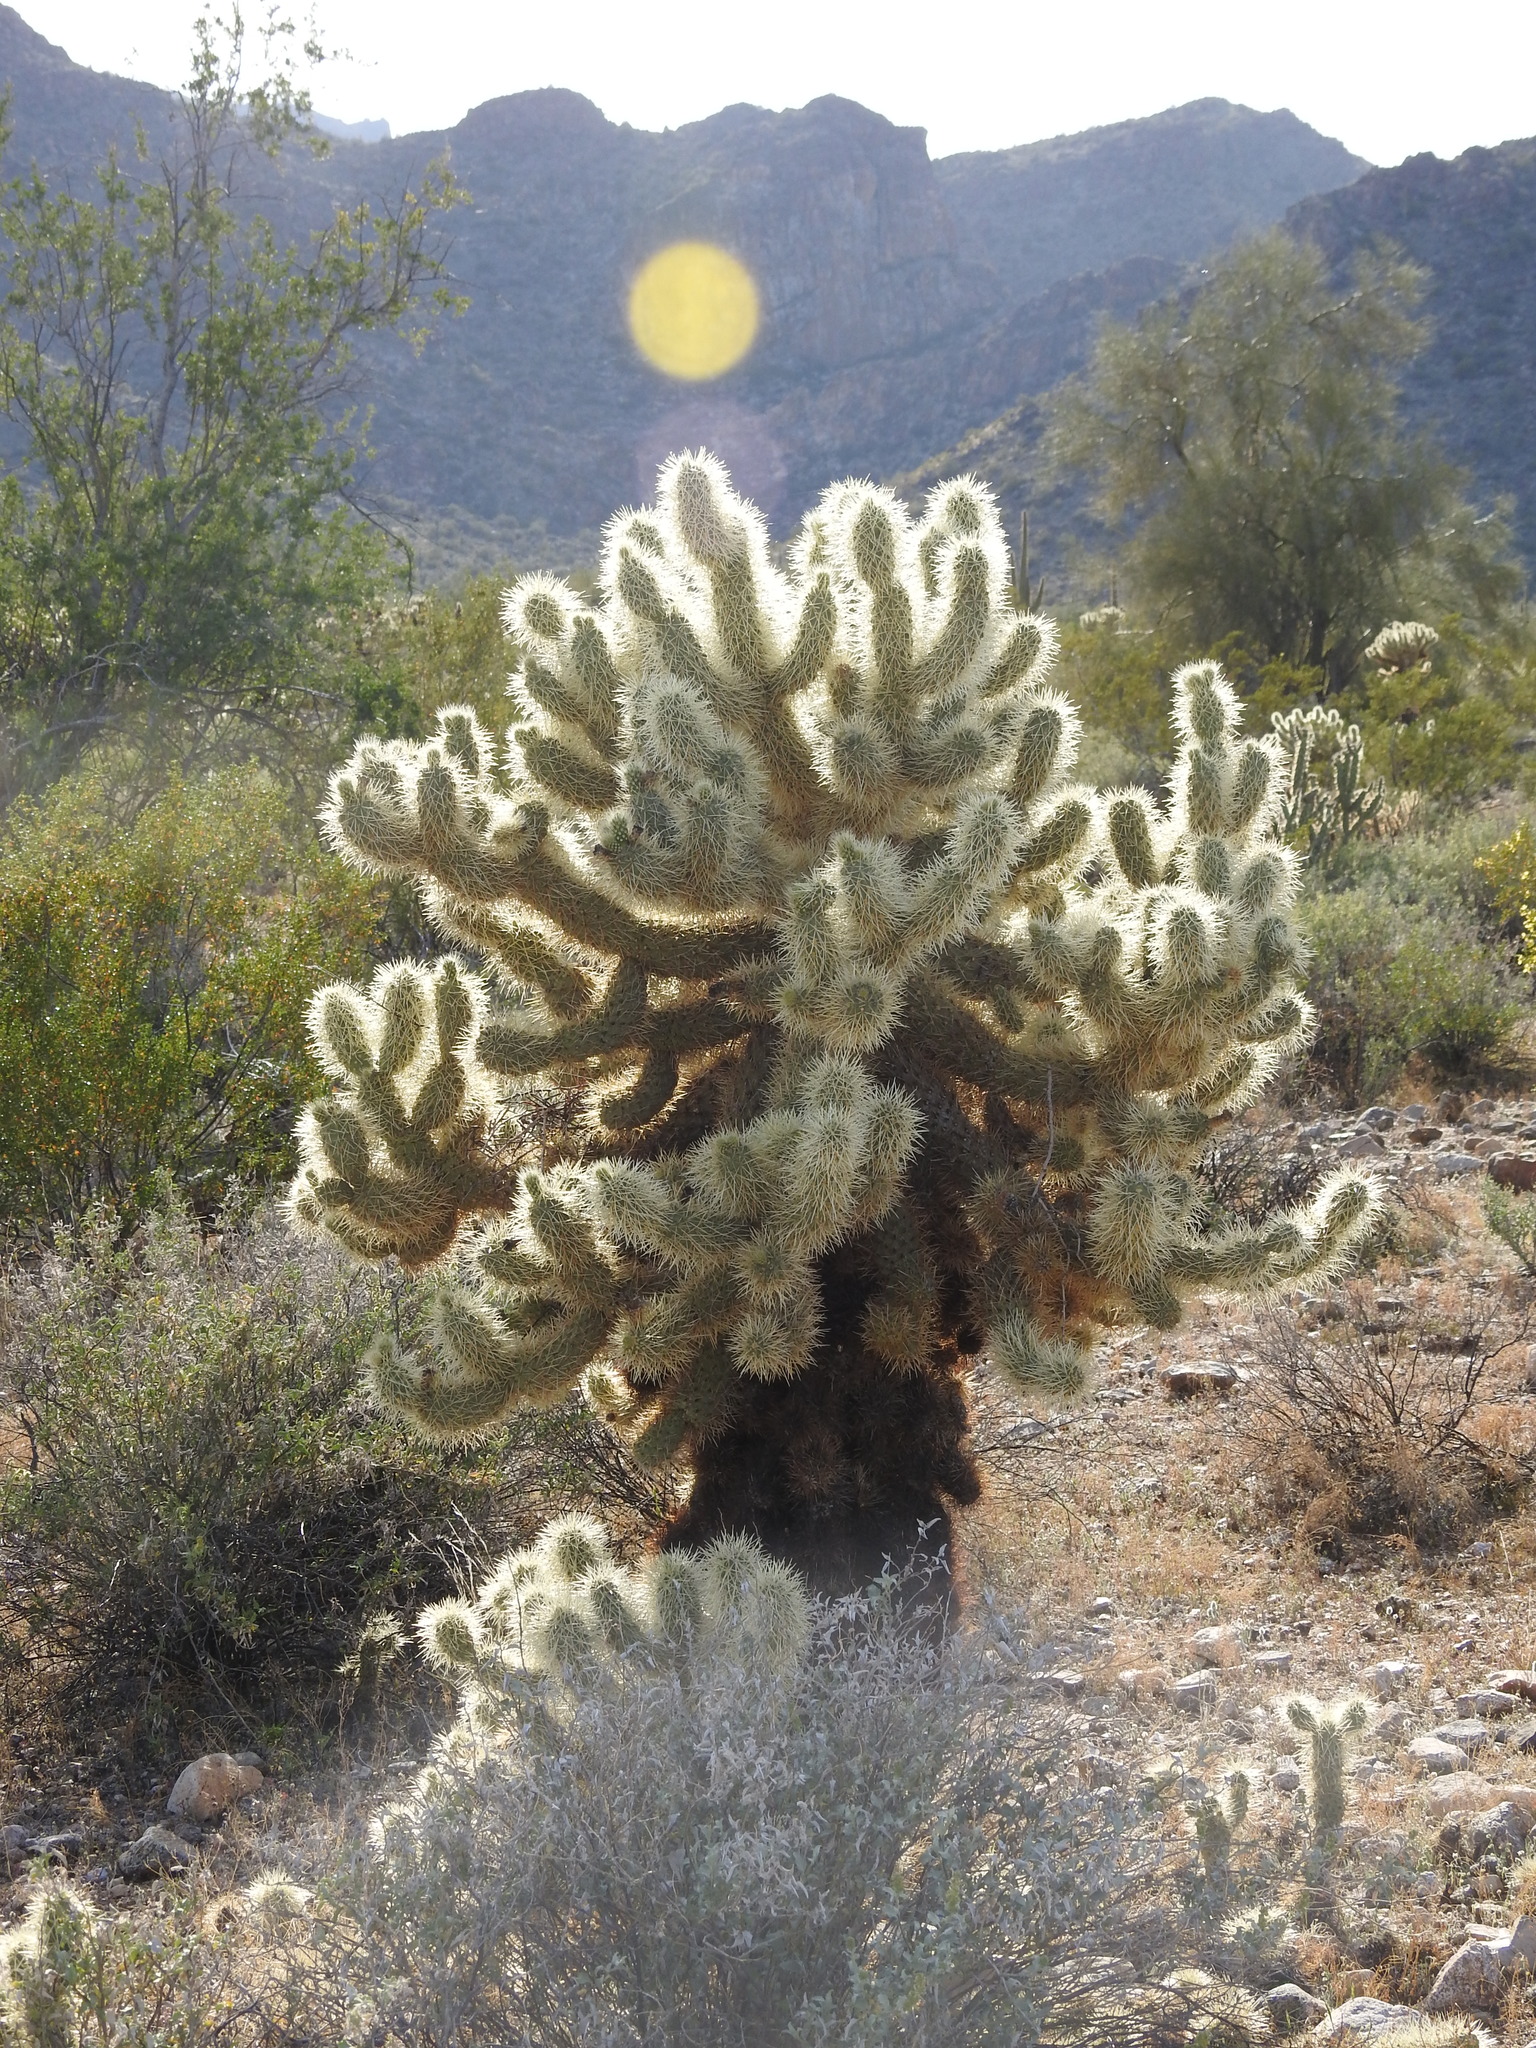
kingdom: Plantae
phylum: Tracheophyta
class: Magnoliopsida
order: Caryophyllales
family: Cactaceae
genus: Cylindropuntia
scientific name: Cylindropuntia fosbergii
